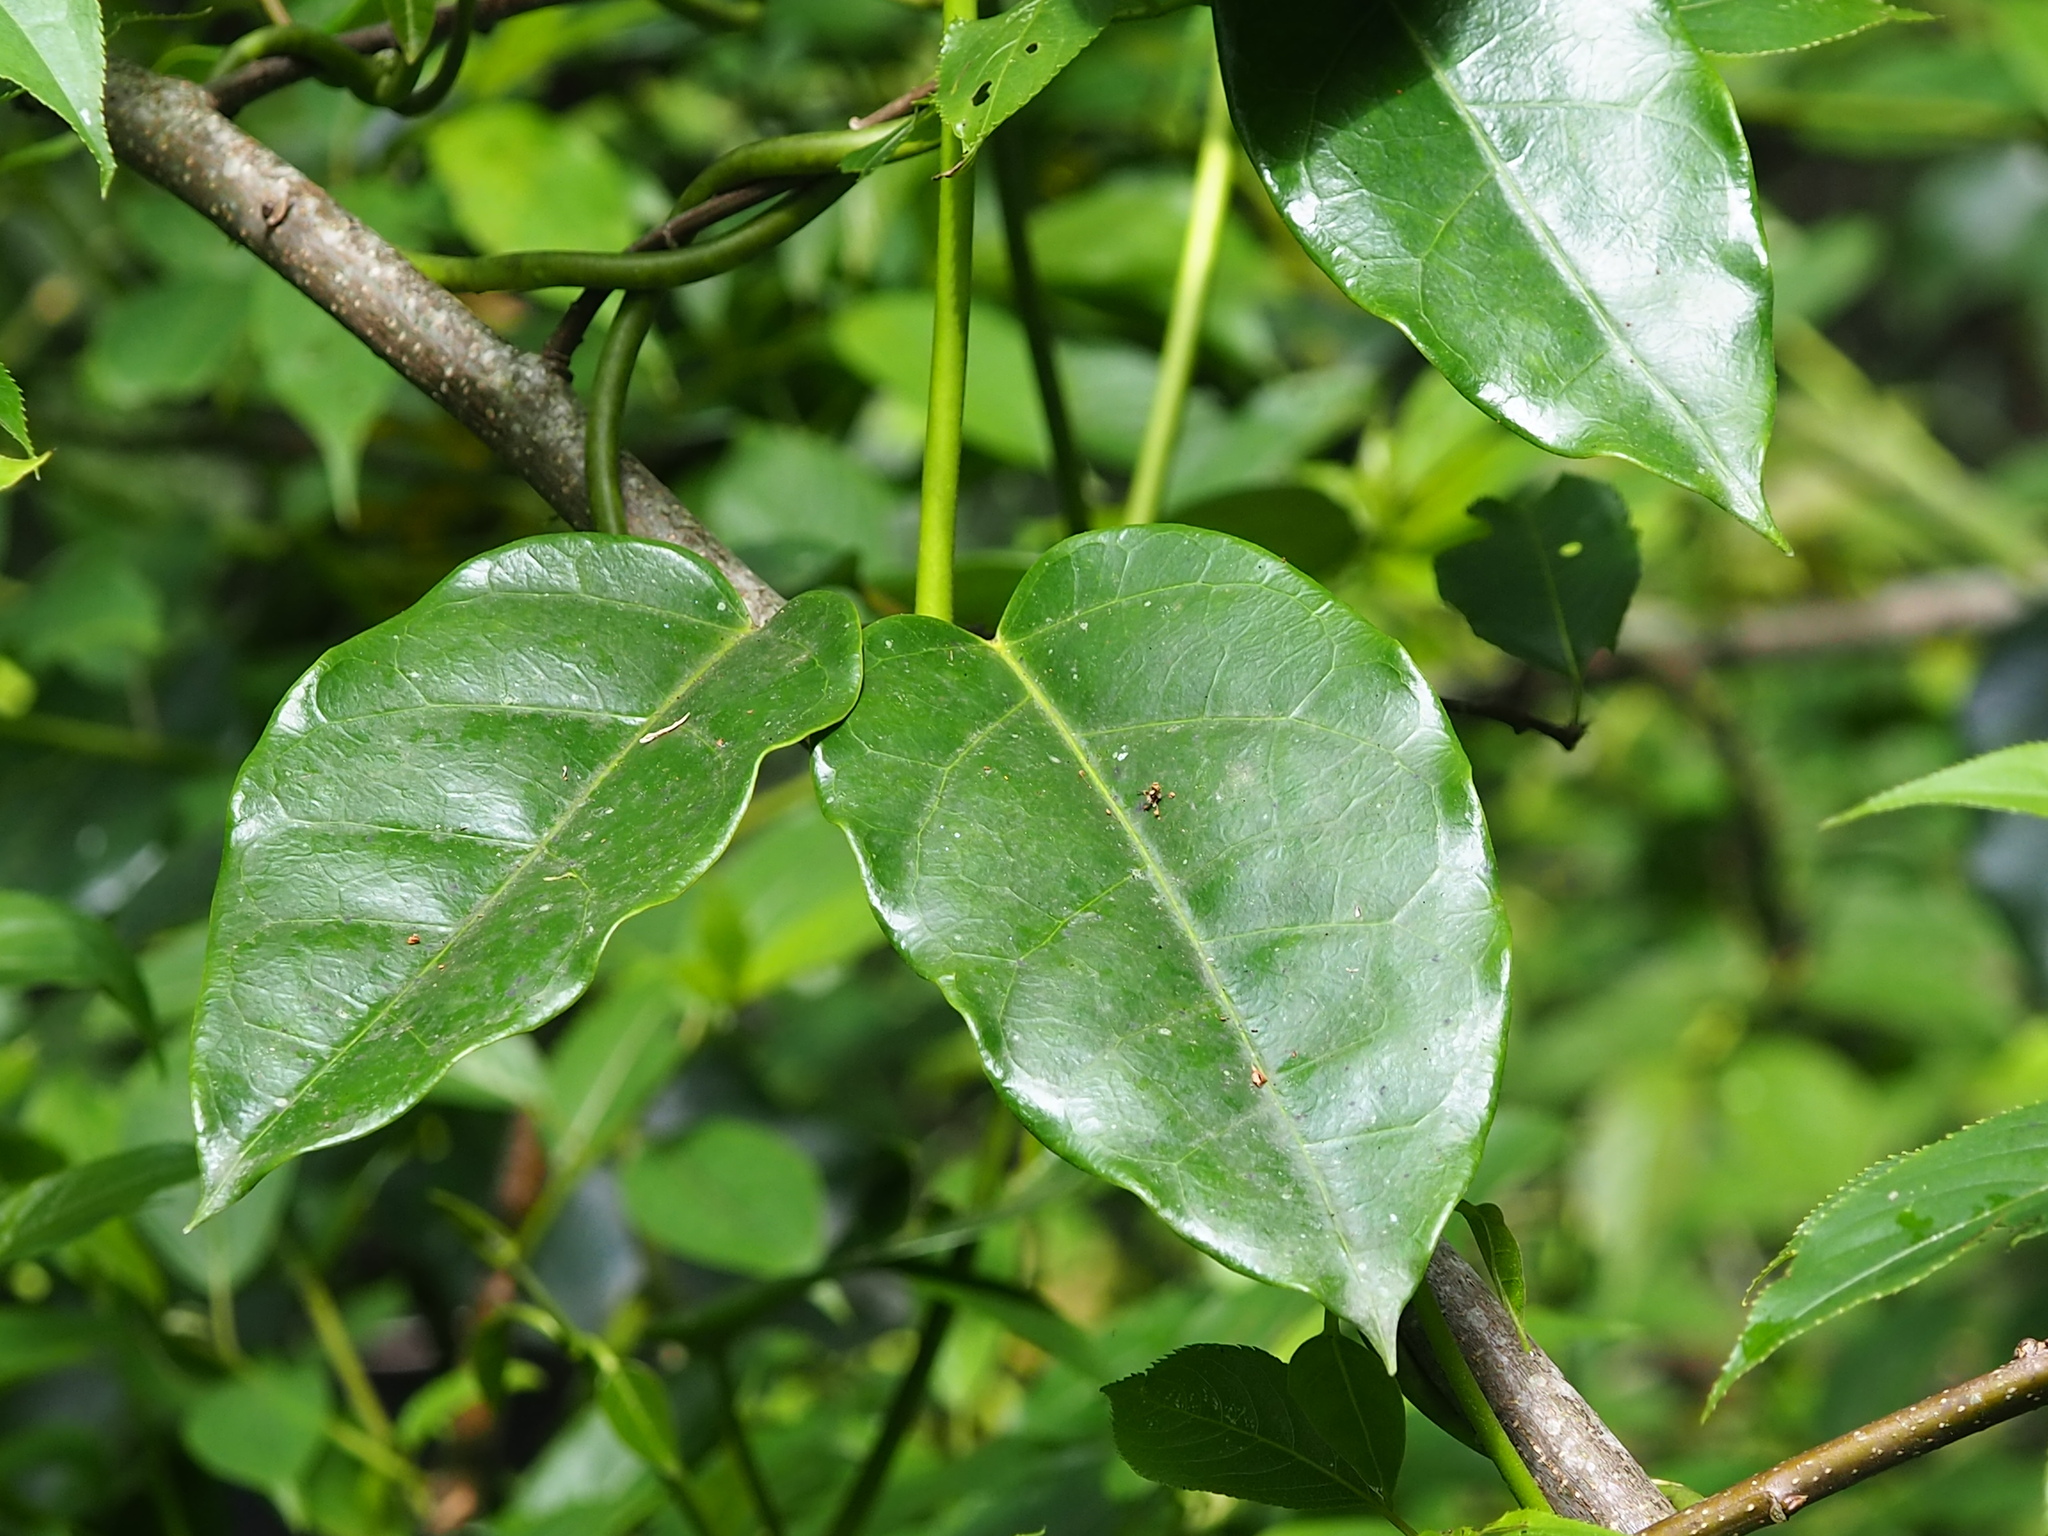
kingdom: Plantae
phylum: Tracheophyta
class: Magnoliopsida
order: Gentianales
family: Apocynaceae
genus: Sinomarsdenia
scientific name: Sinomarsdenia formosana
